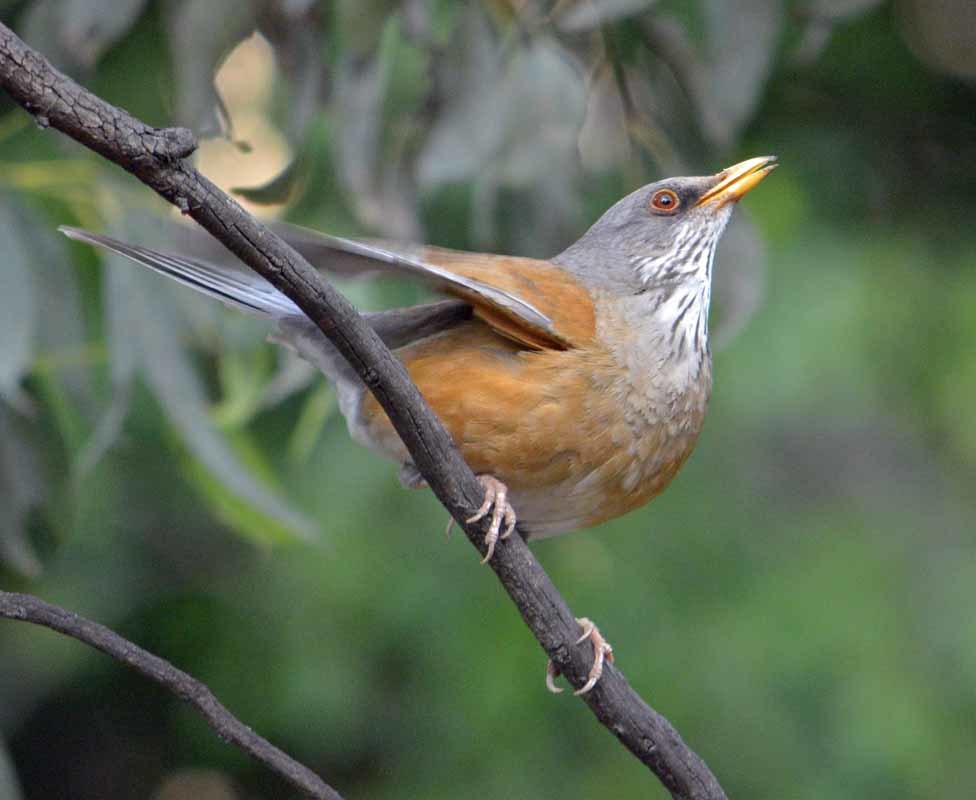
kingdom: Animalia
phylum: Chordata
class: Aves
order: Passeriformes
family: Turdidae
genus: Turdus
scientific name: Turdus rufopalliatus
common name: Rufous-backed robin
